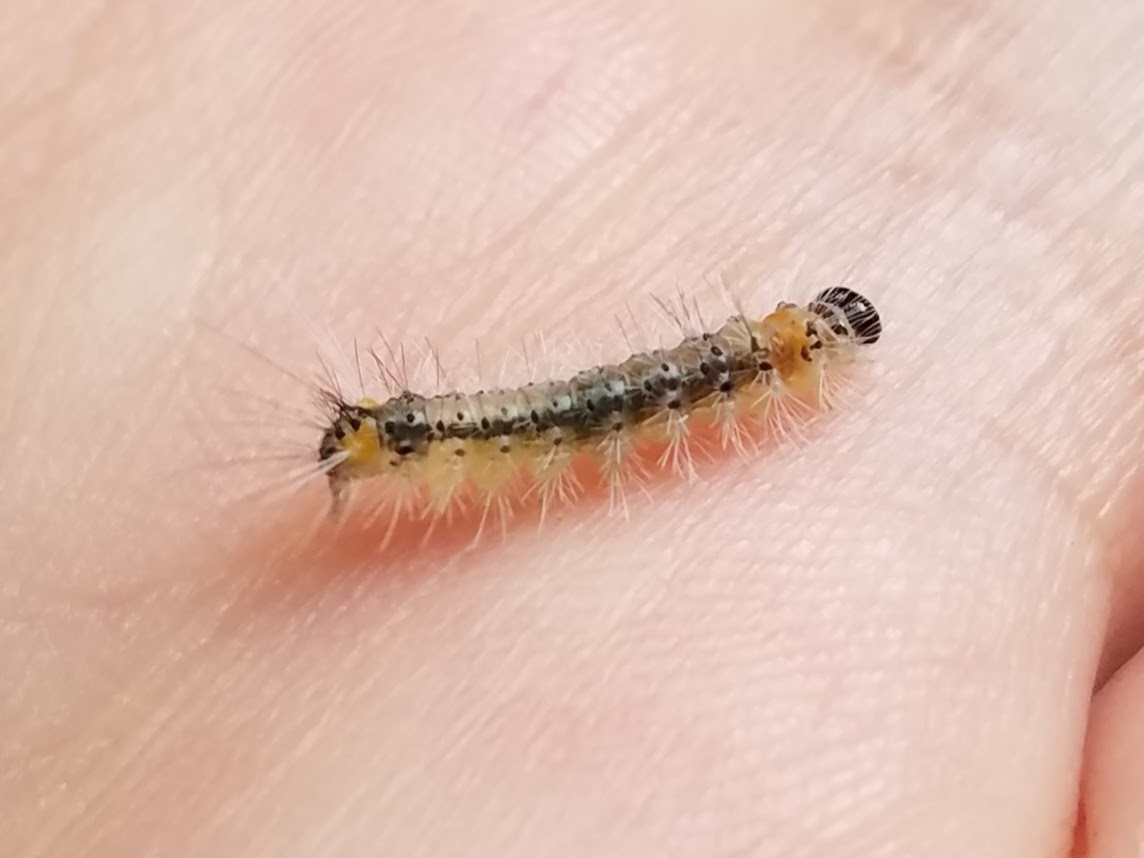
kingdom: Animalia
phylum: Arthropoda
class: Insecta
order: Lepidoptera
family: Erebidae
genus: Halysidota
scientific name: Halysidota tessellaris
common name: Banded tussock moth
